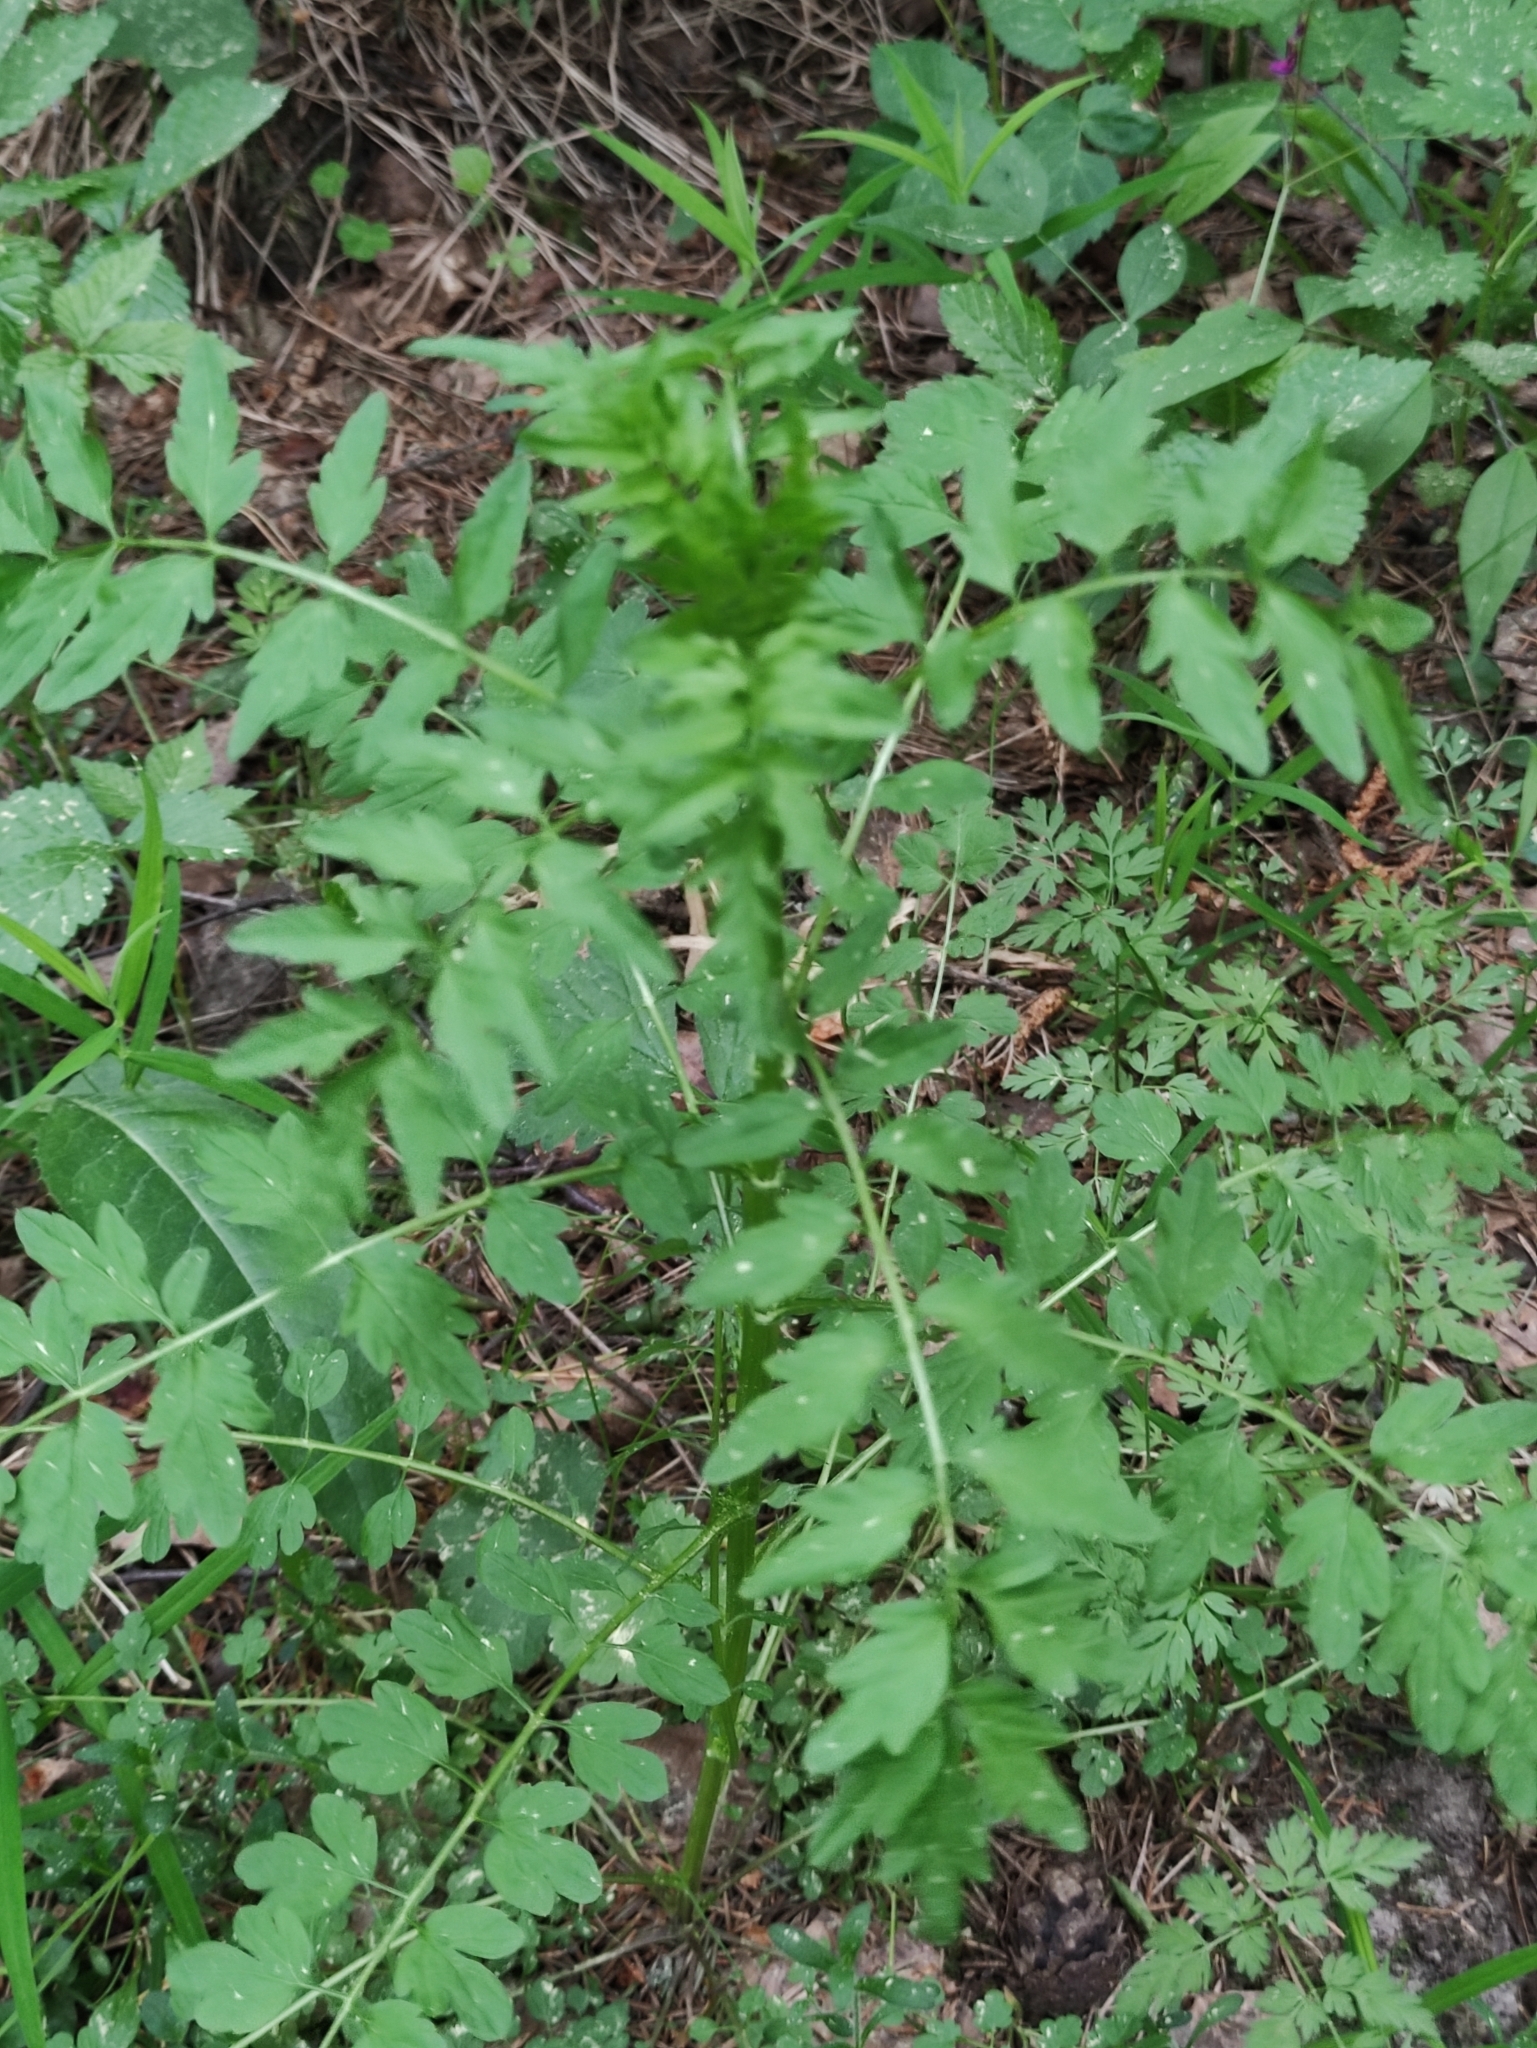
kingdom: Plantae
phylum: Tracheophyta
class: Magnoliopsida
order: Brassicales
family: Brassicaceae
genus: Cardamine
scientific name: Cardamine impatiens
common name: Narrow-leaved bitter-cress
